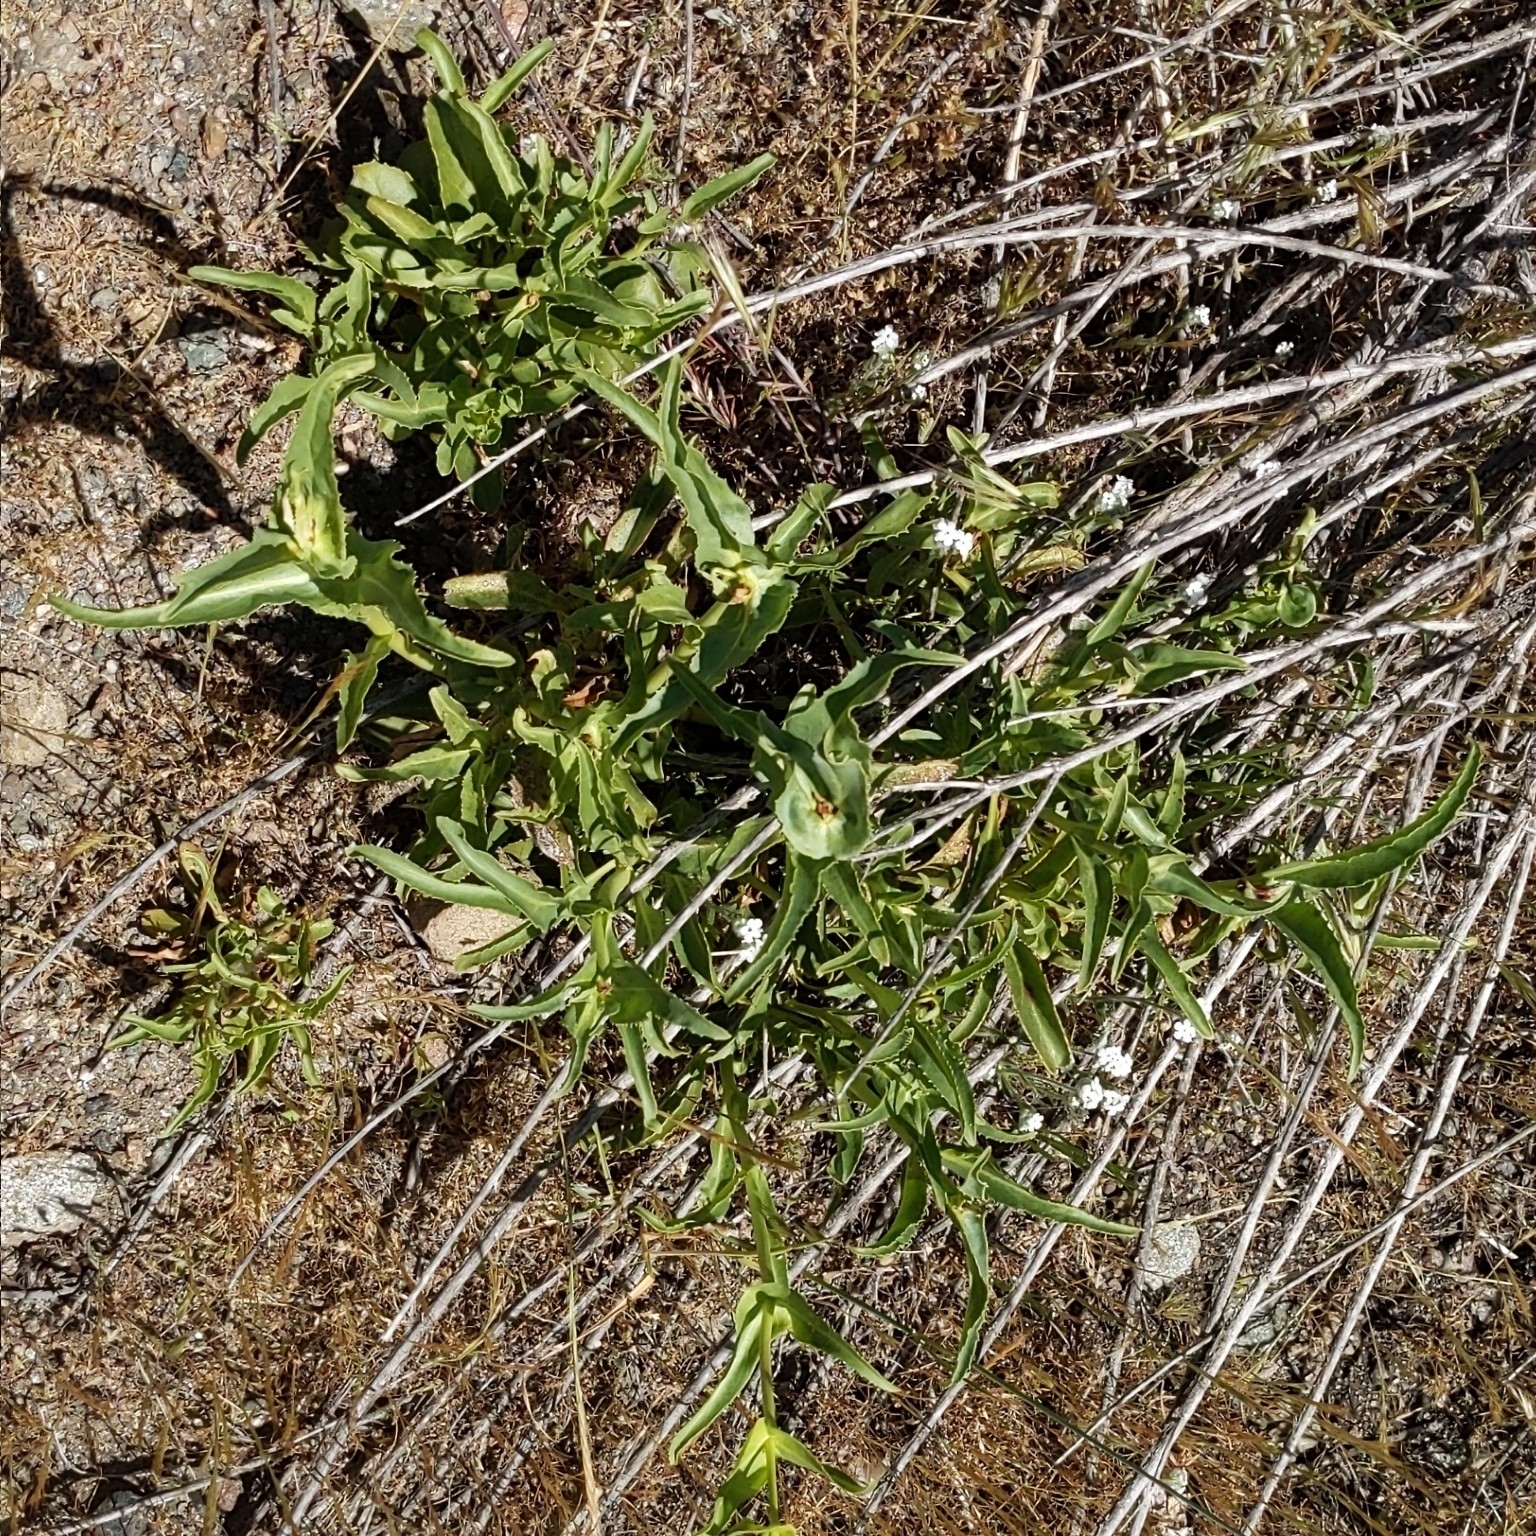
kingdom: Plantae
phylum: Tracheophyta
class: Magnoliopsida
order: Lamiales
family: Plantaginaceae
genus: Penstemon
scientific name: Penstemon spectabilis
